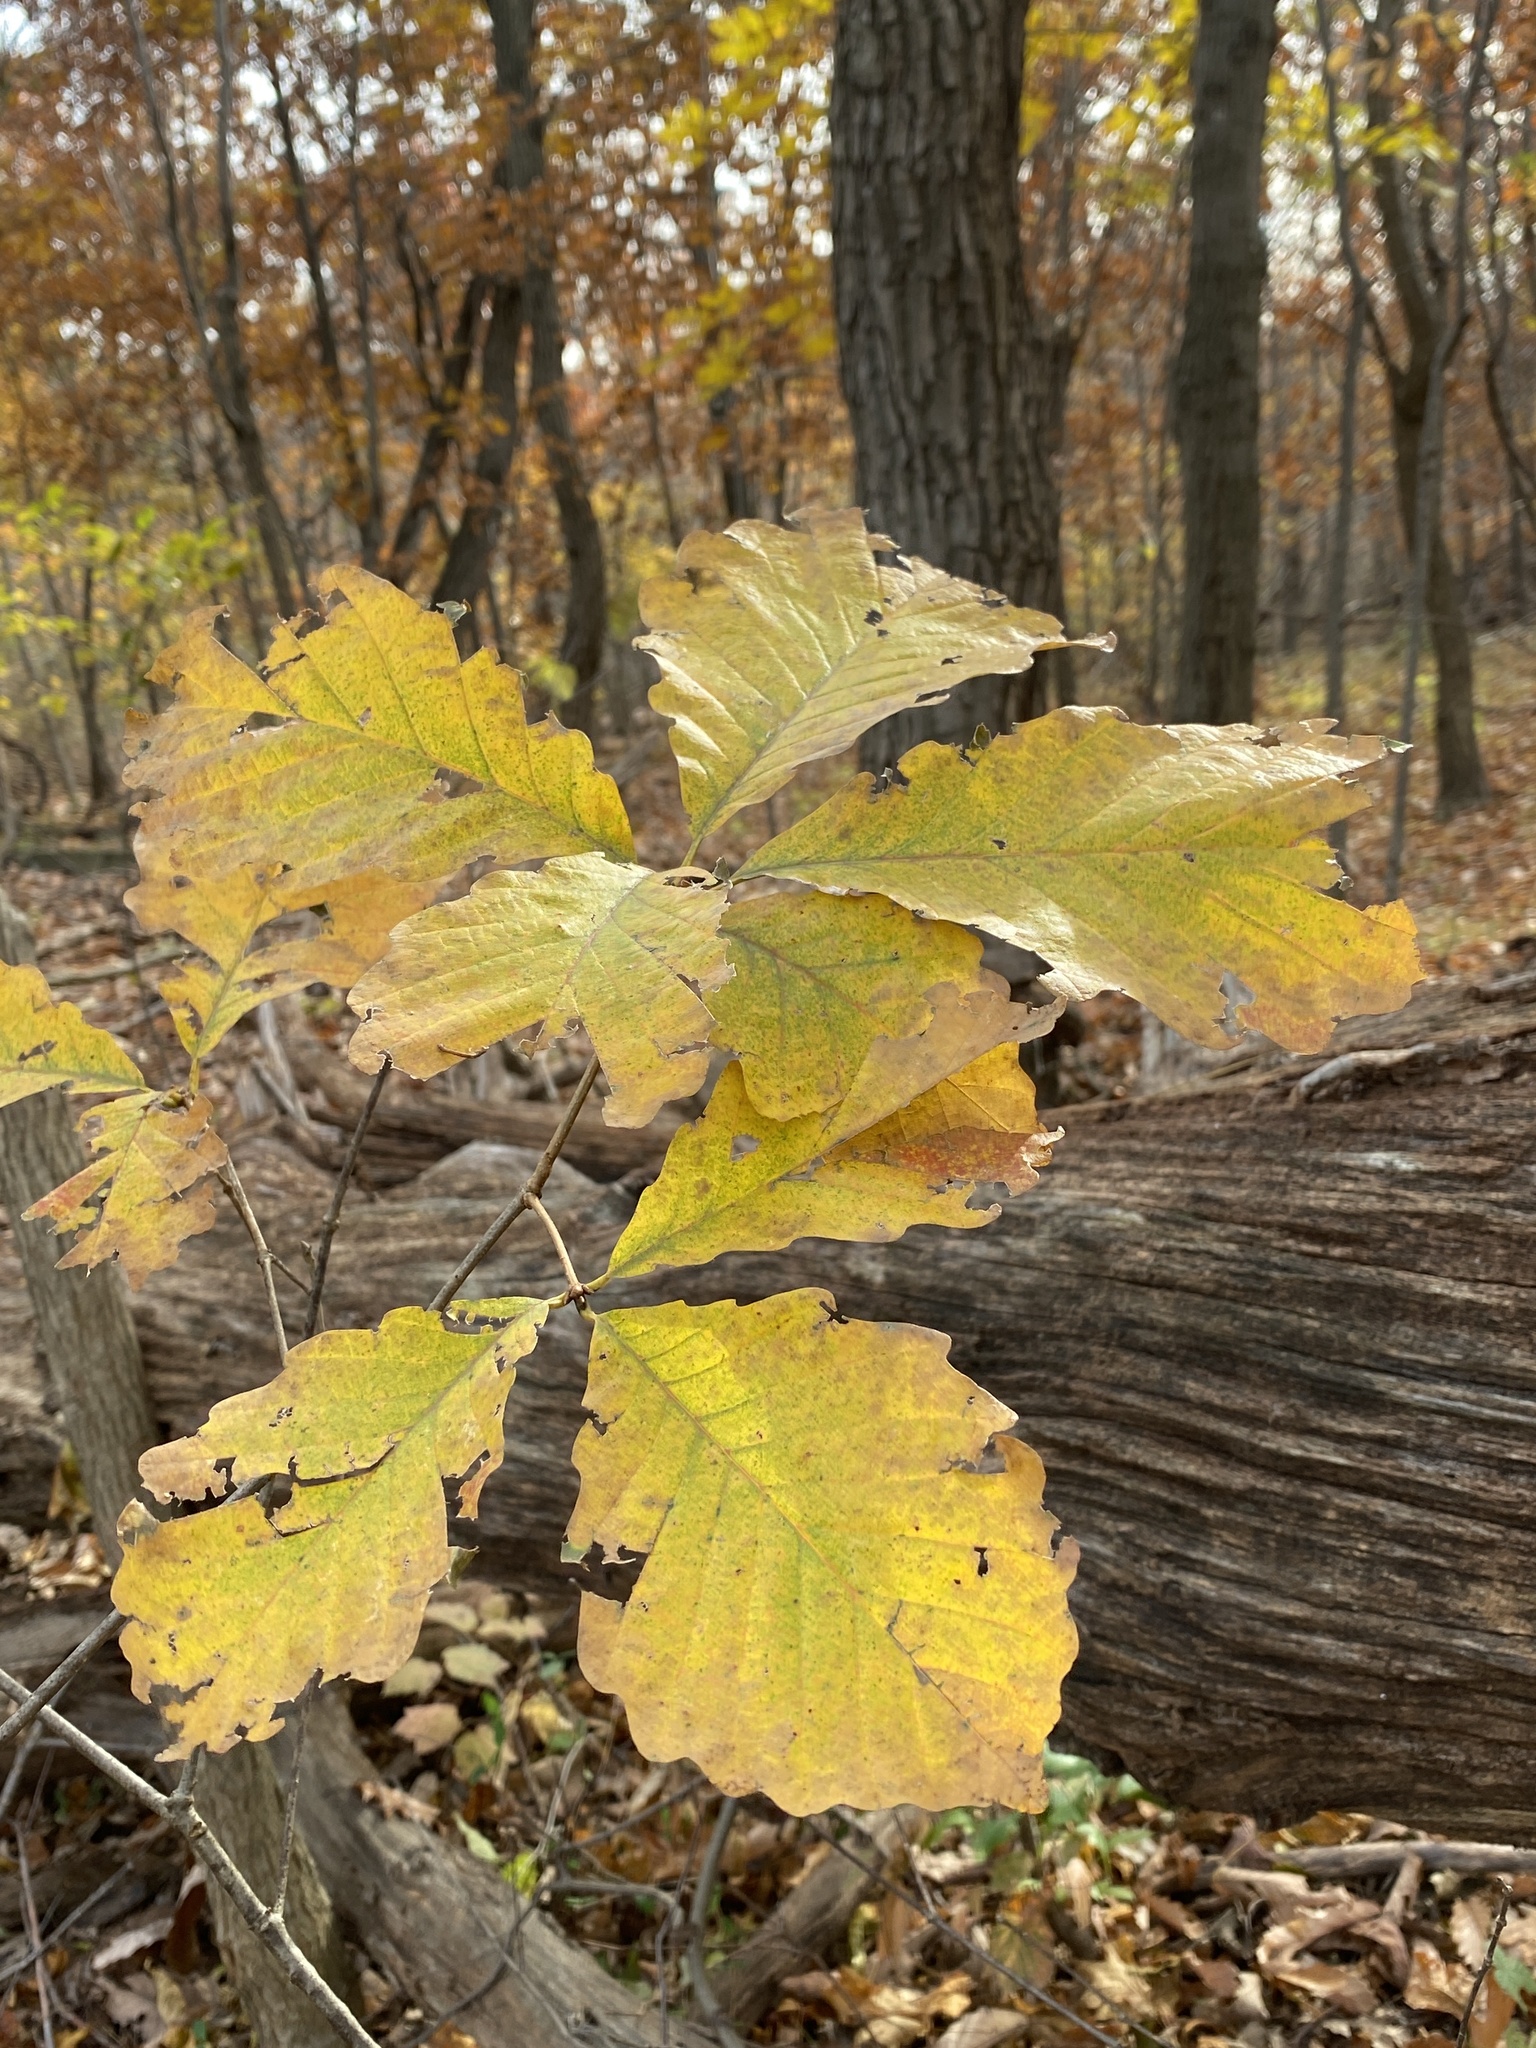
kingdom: Plantae
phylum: Tracheophyta
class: Magnoliopsida
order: Fagales
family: Fagaceae
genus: Quercus
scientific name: Quercus montana
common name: Chestnut oak
